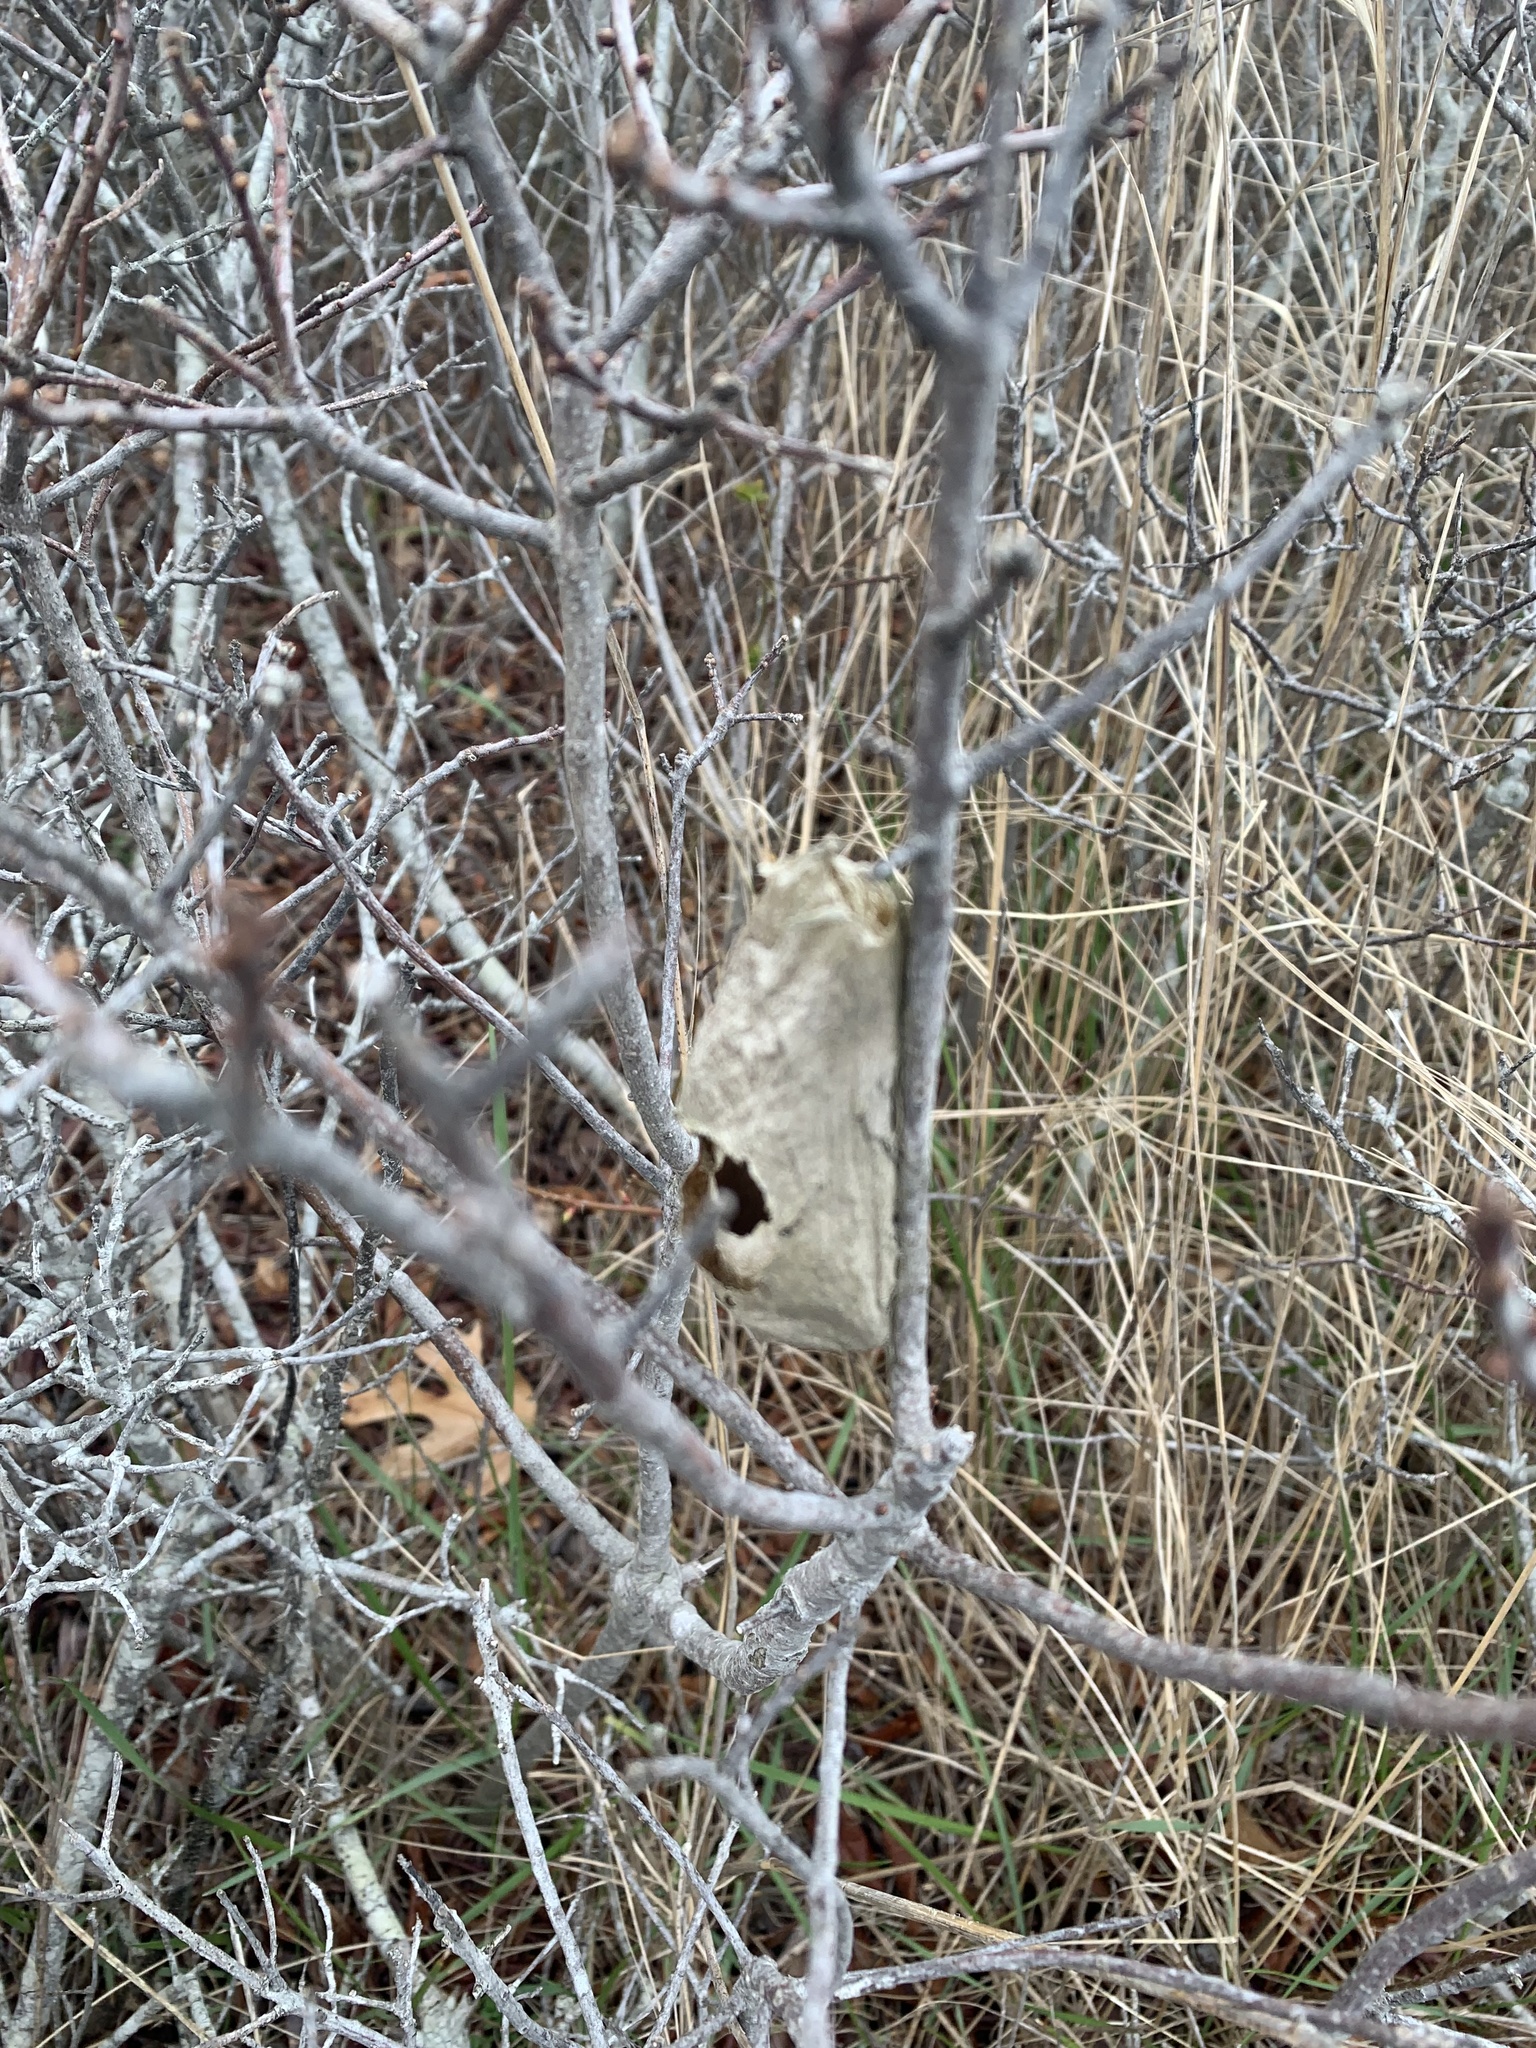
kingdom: Animalia
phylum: Arthropoda
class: Insecta
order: Lepidoptera
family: Saturniidae
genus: Hyalophora
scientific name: Hyalophora cecropia
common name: Cecropia silkmoth
